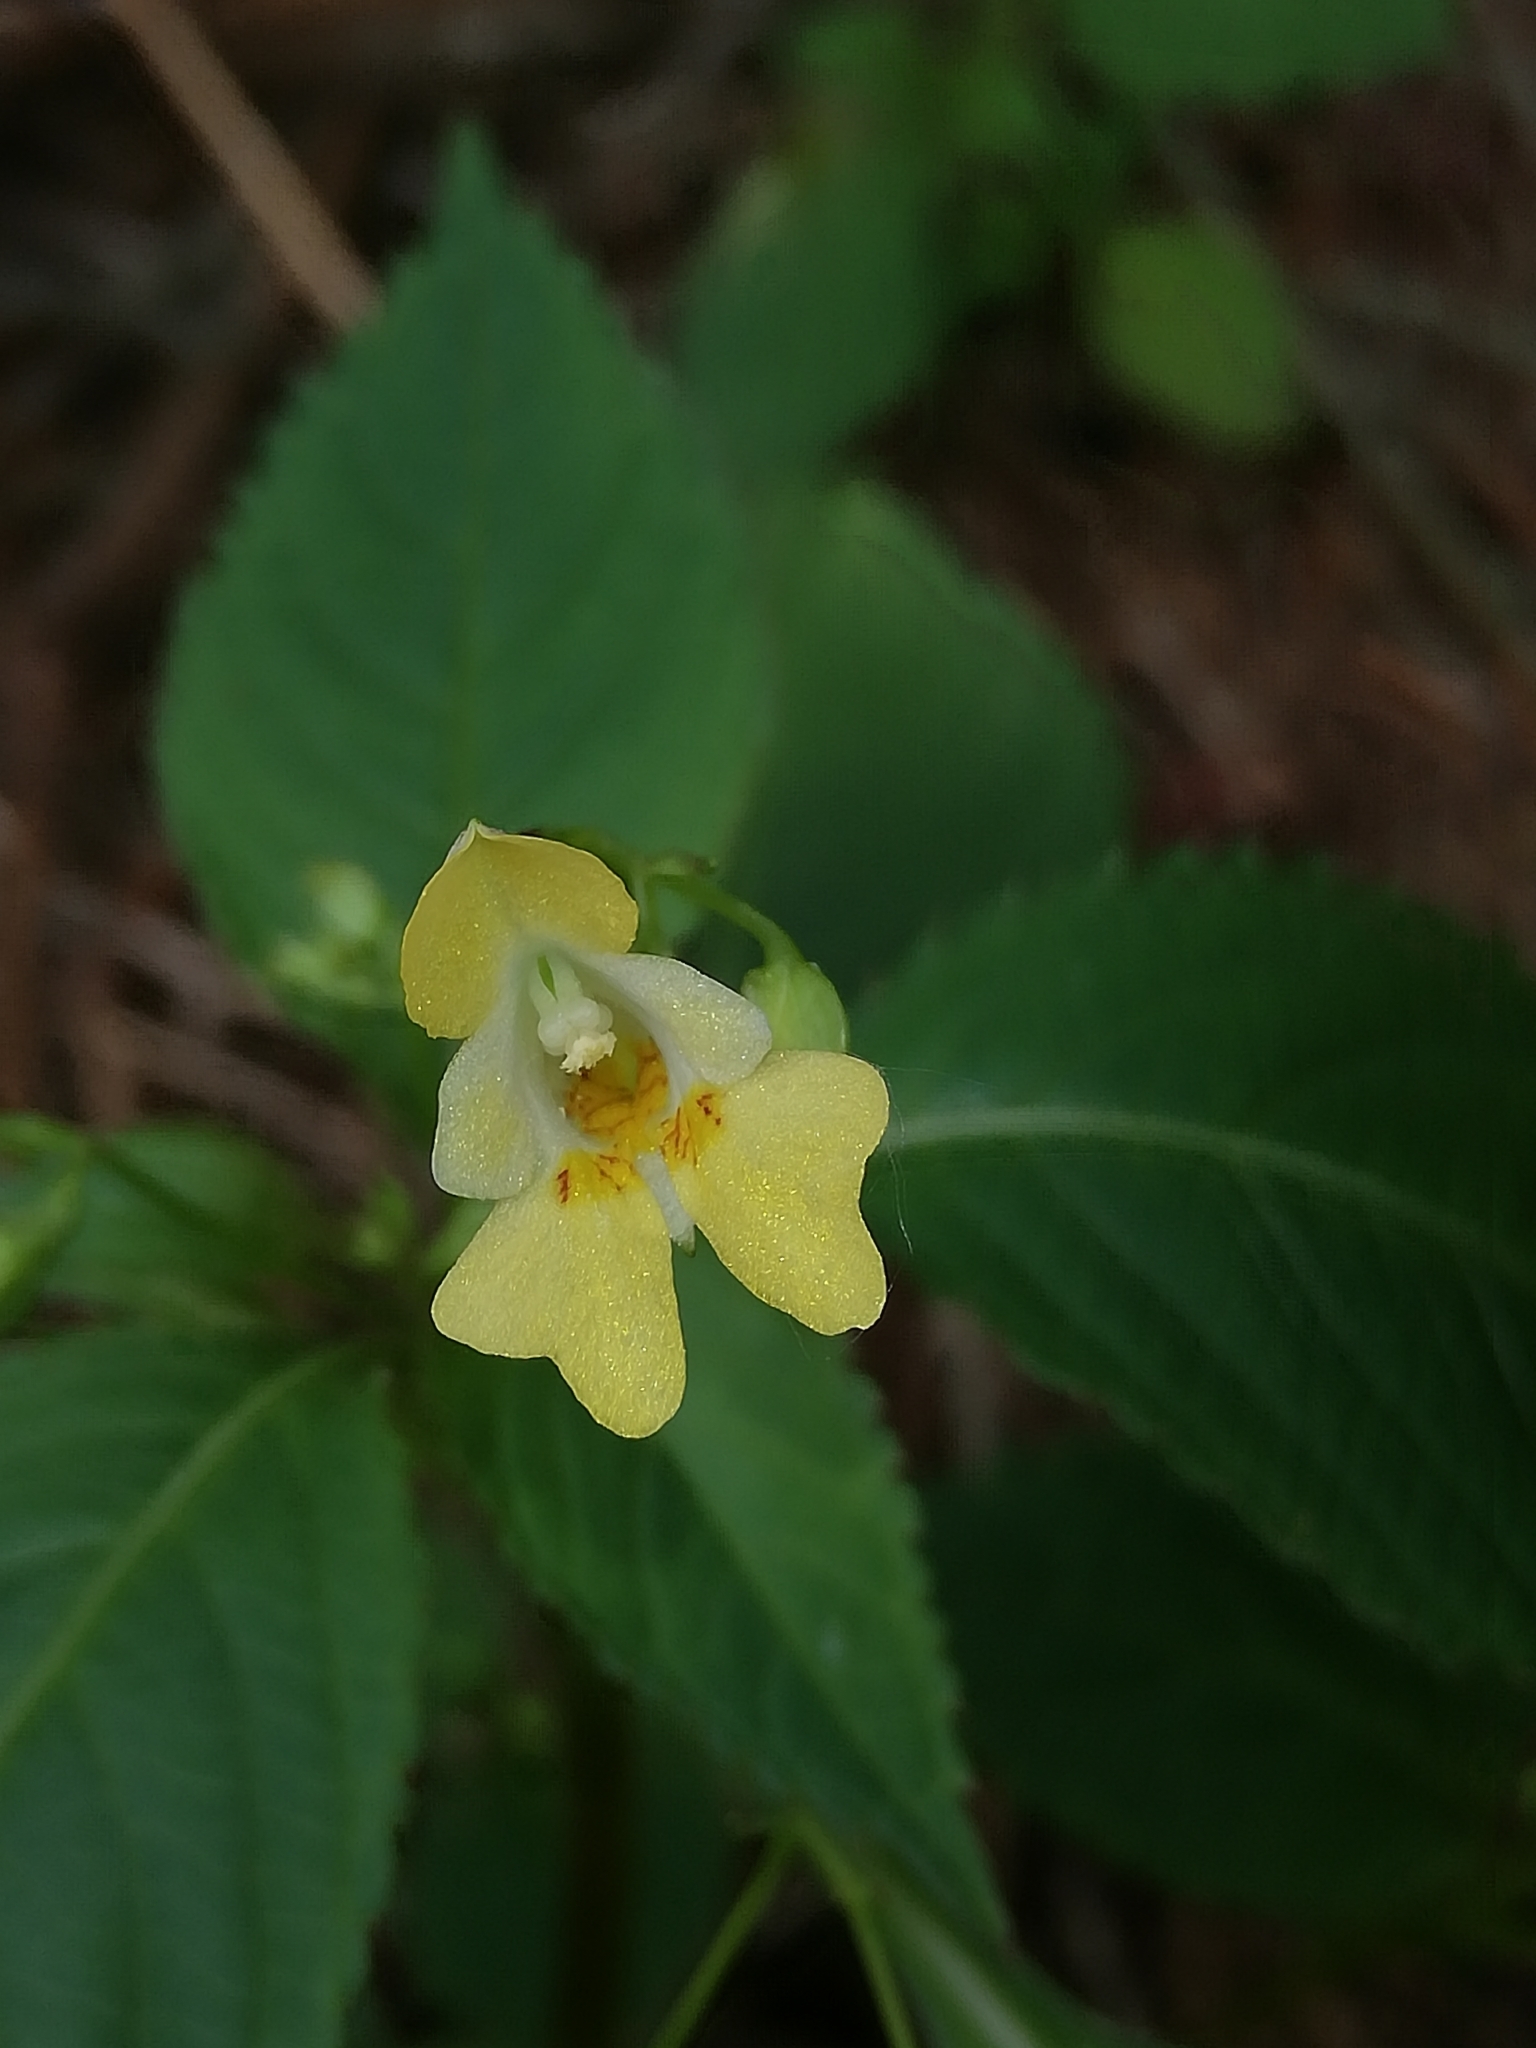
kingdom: Plantae
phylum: Tracheophyta
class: Magnoliopsida
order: Ericales
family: Balsaminaceae
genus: Impatiens
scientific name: Impatiens parviflora
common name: Small balsam
